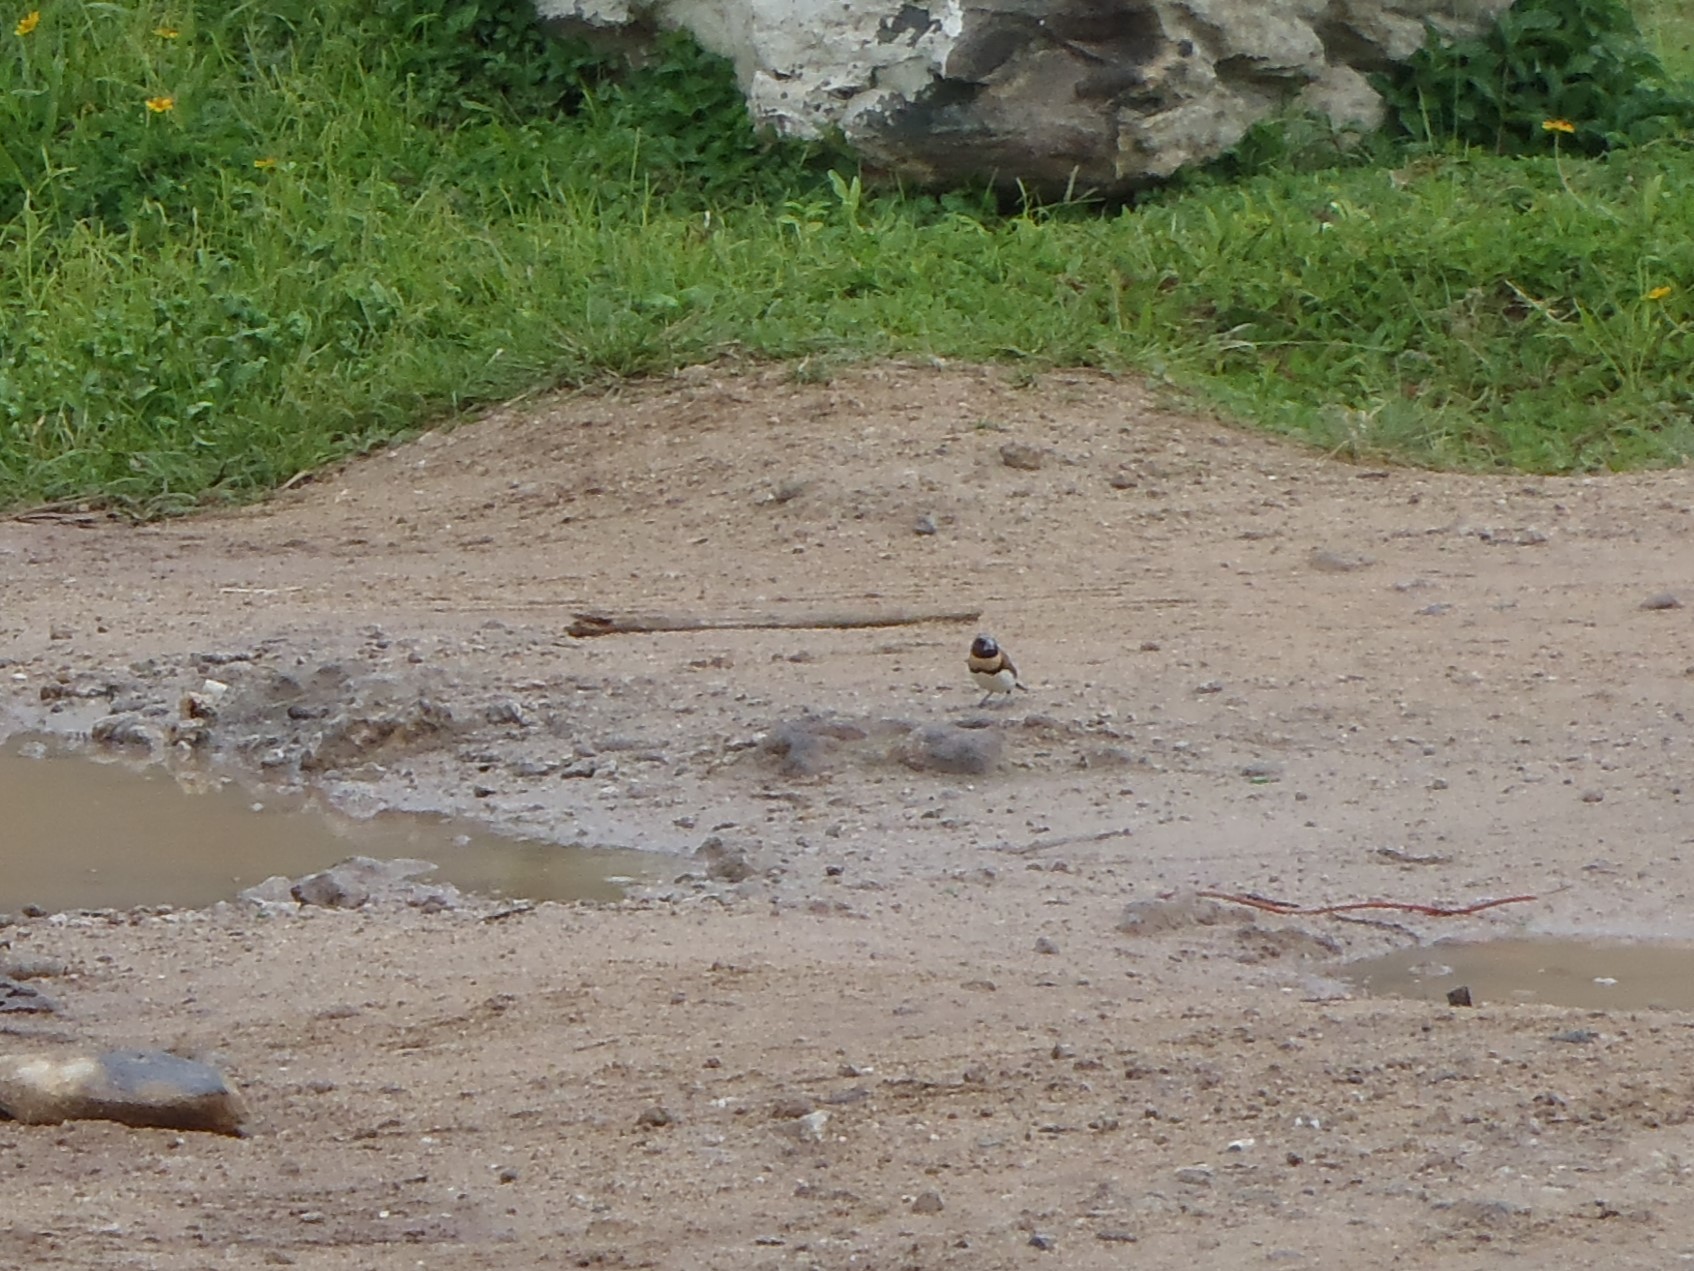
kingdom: Animalia
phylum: Chordata
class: Aves
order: Passeriformes
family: Estrildidae
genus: Lonchura
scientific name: Lonchura castaneothorax
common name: Chestnut-breasted mannikin
